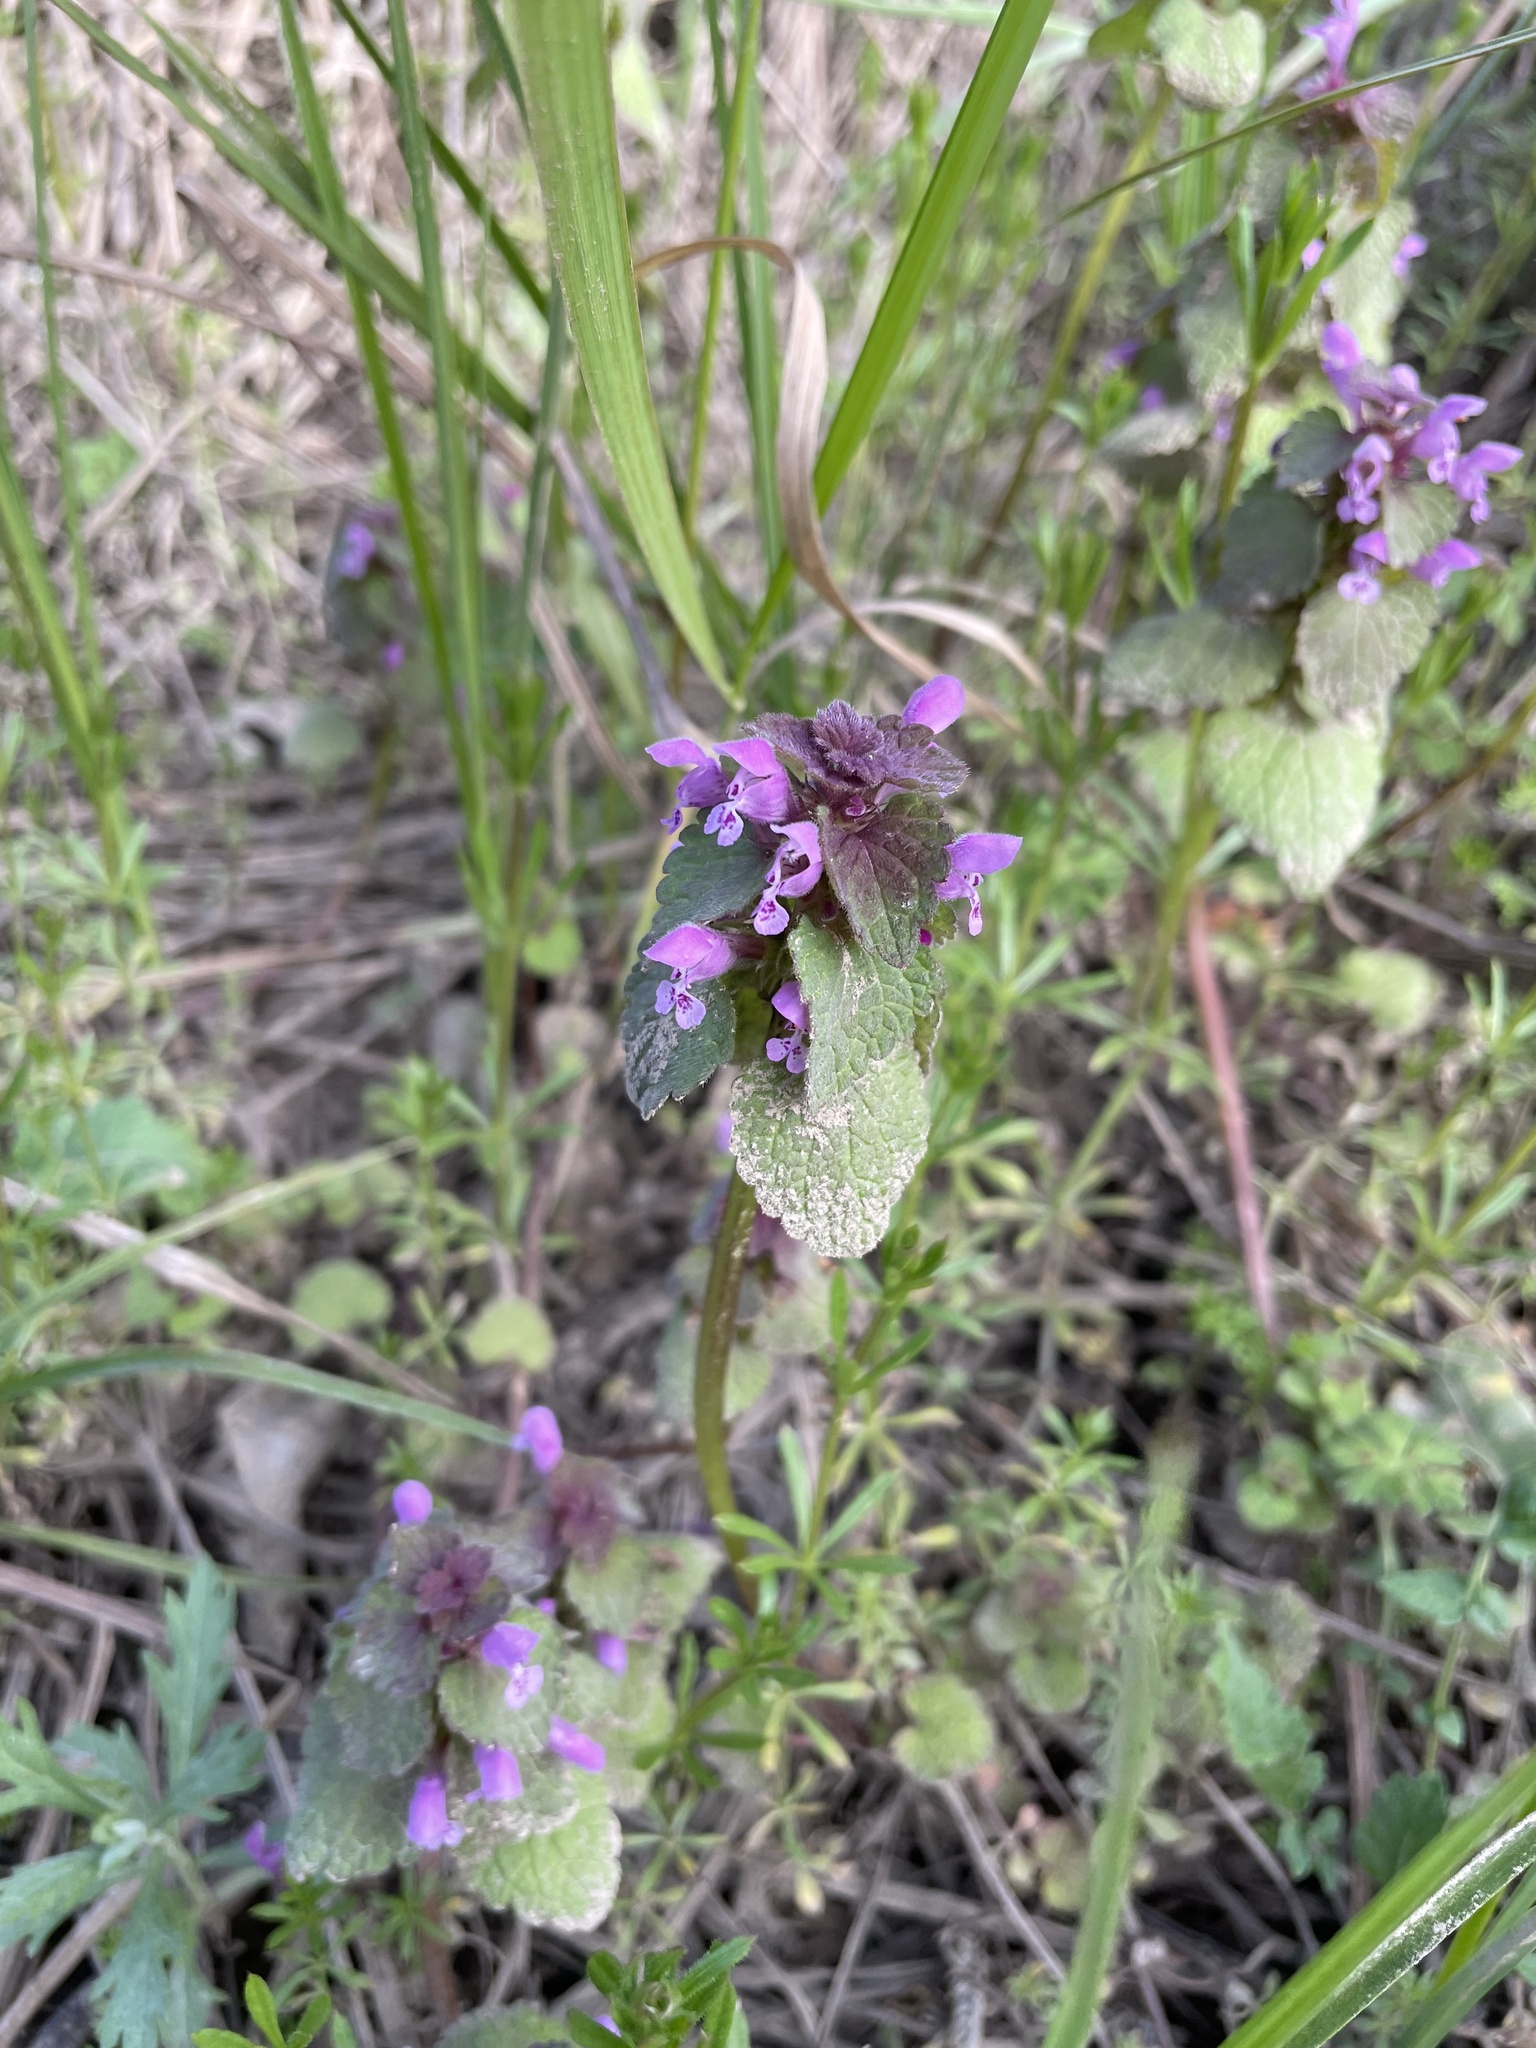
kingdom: Plantae
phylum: Tracheophyta
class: Magnoliopsida
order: Lamiales
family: Lamiaceae
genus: Lamium
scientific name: Lamium purpureum
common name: Red dead-nettle
